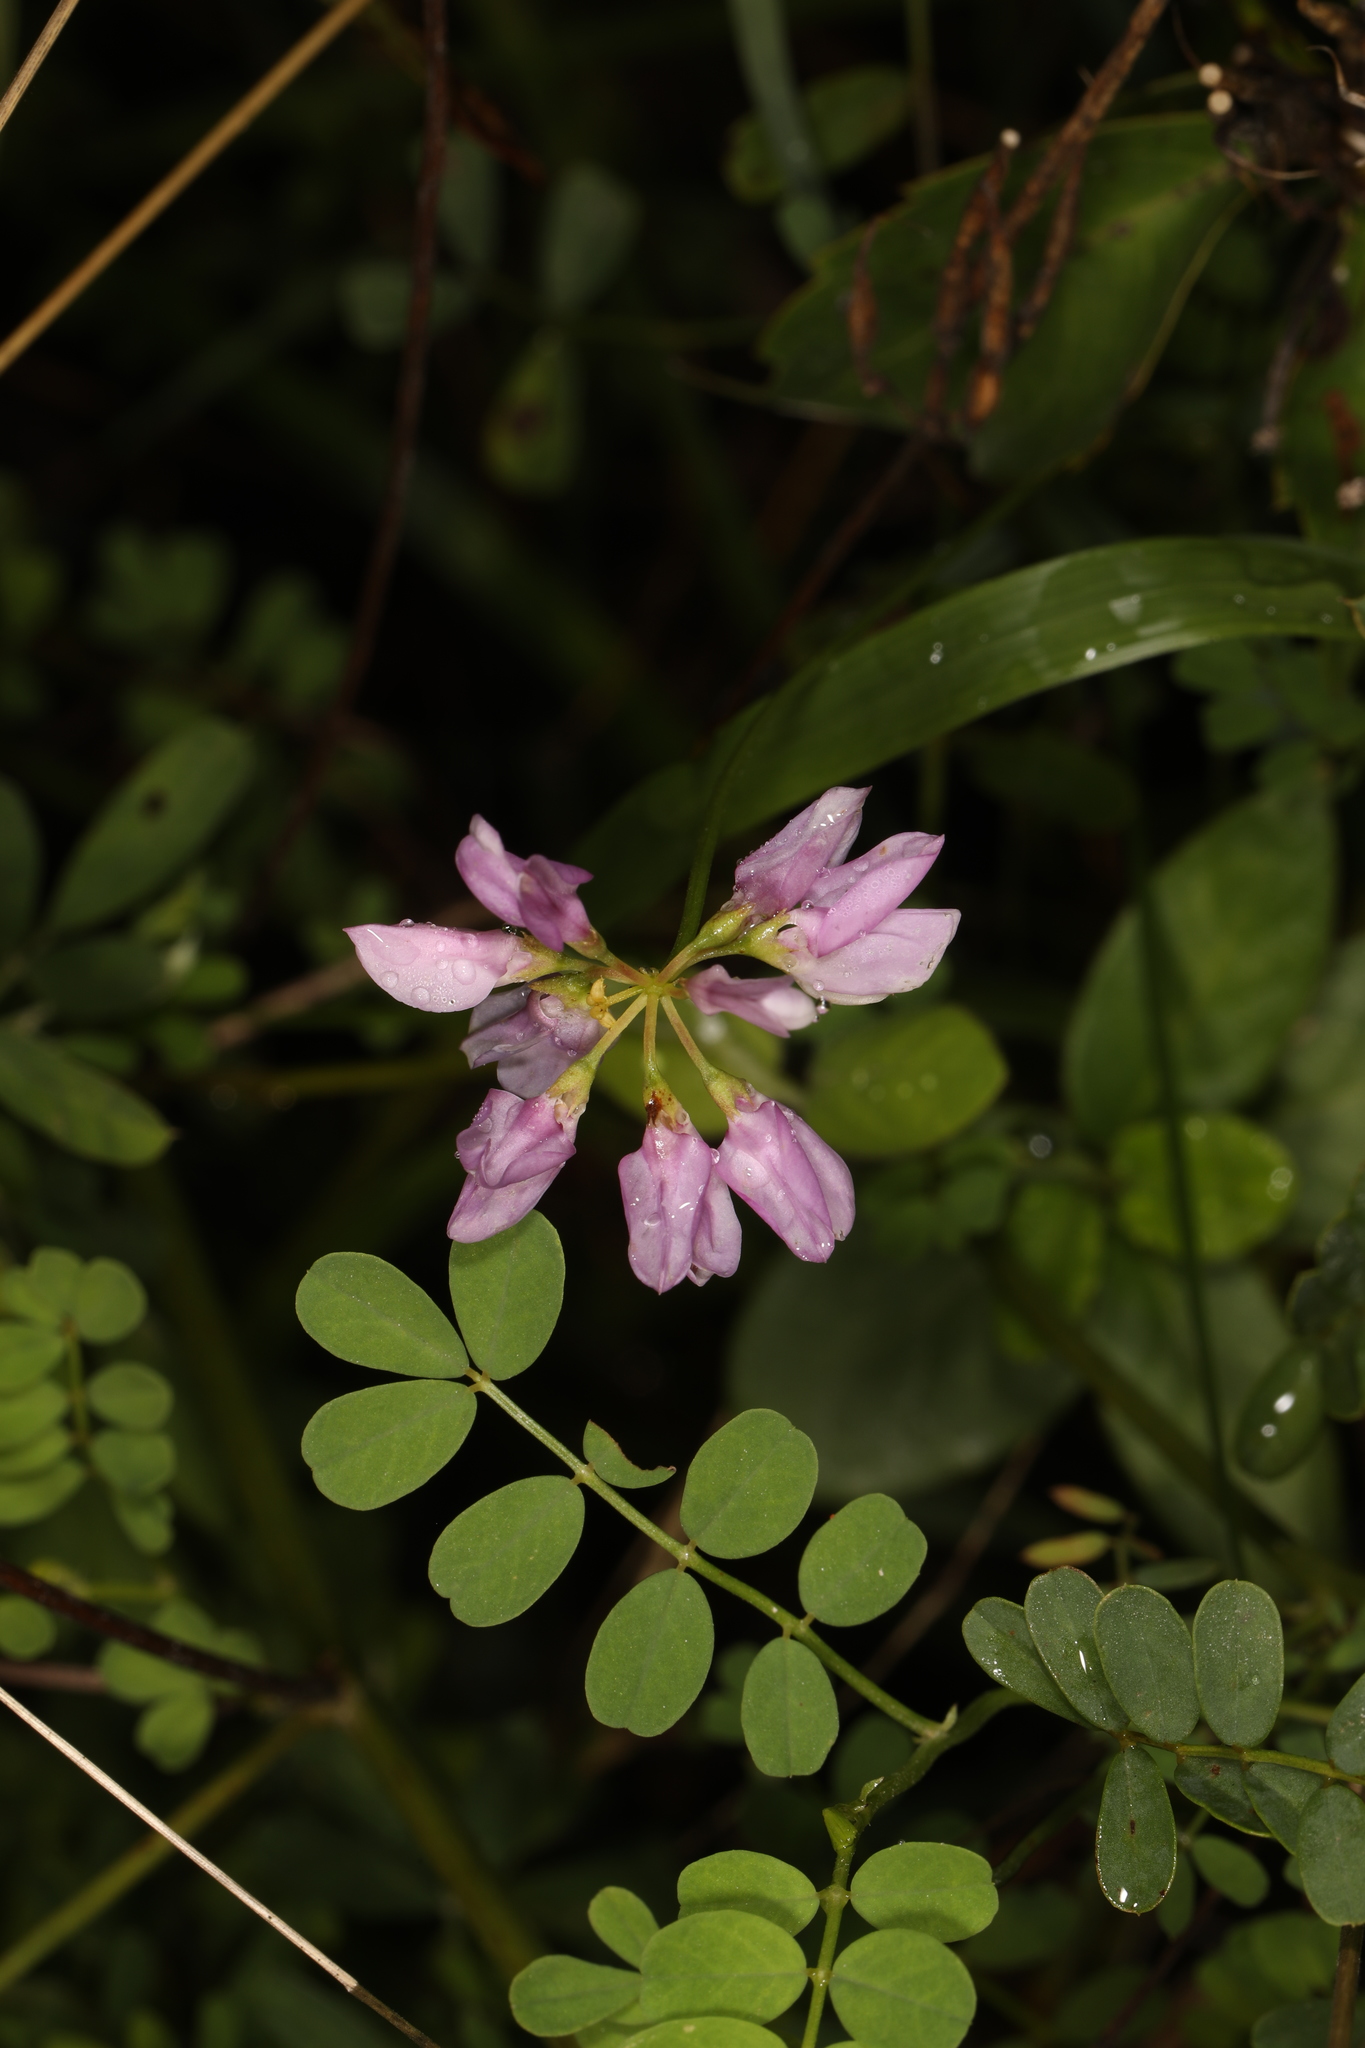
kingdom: Plantae
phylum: Tracheophyta
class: Magnoliopsida
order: Fabales
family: Fabaceae
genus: Coronilla
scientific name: Coronilla varia
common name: Crownvetch
